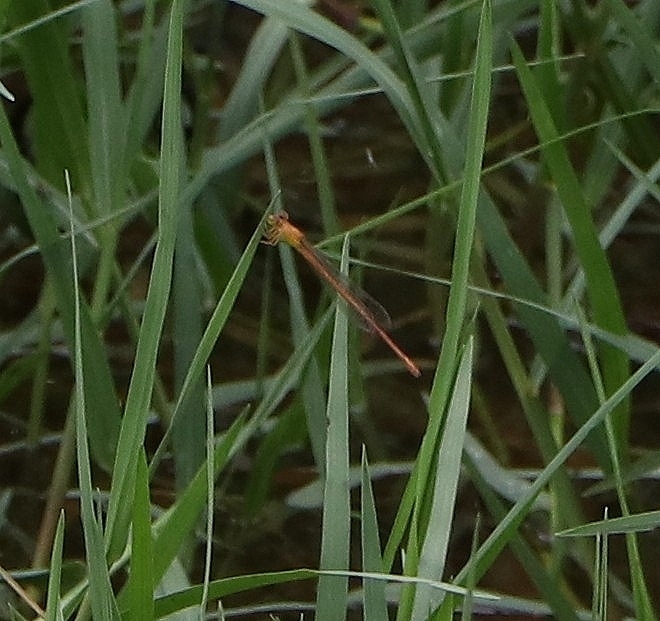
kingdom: Animalia
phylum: Arthropoda
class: Insecta
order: Odonata
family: Coenagrionidae
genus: Ceriagrion
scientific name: Ceriagrion olivaceum
